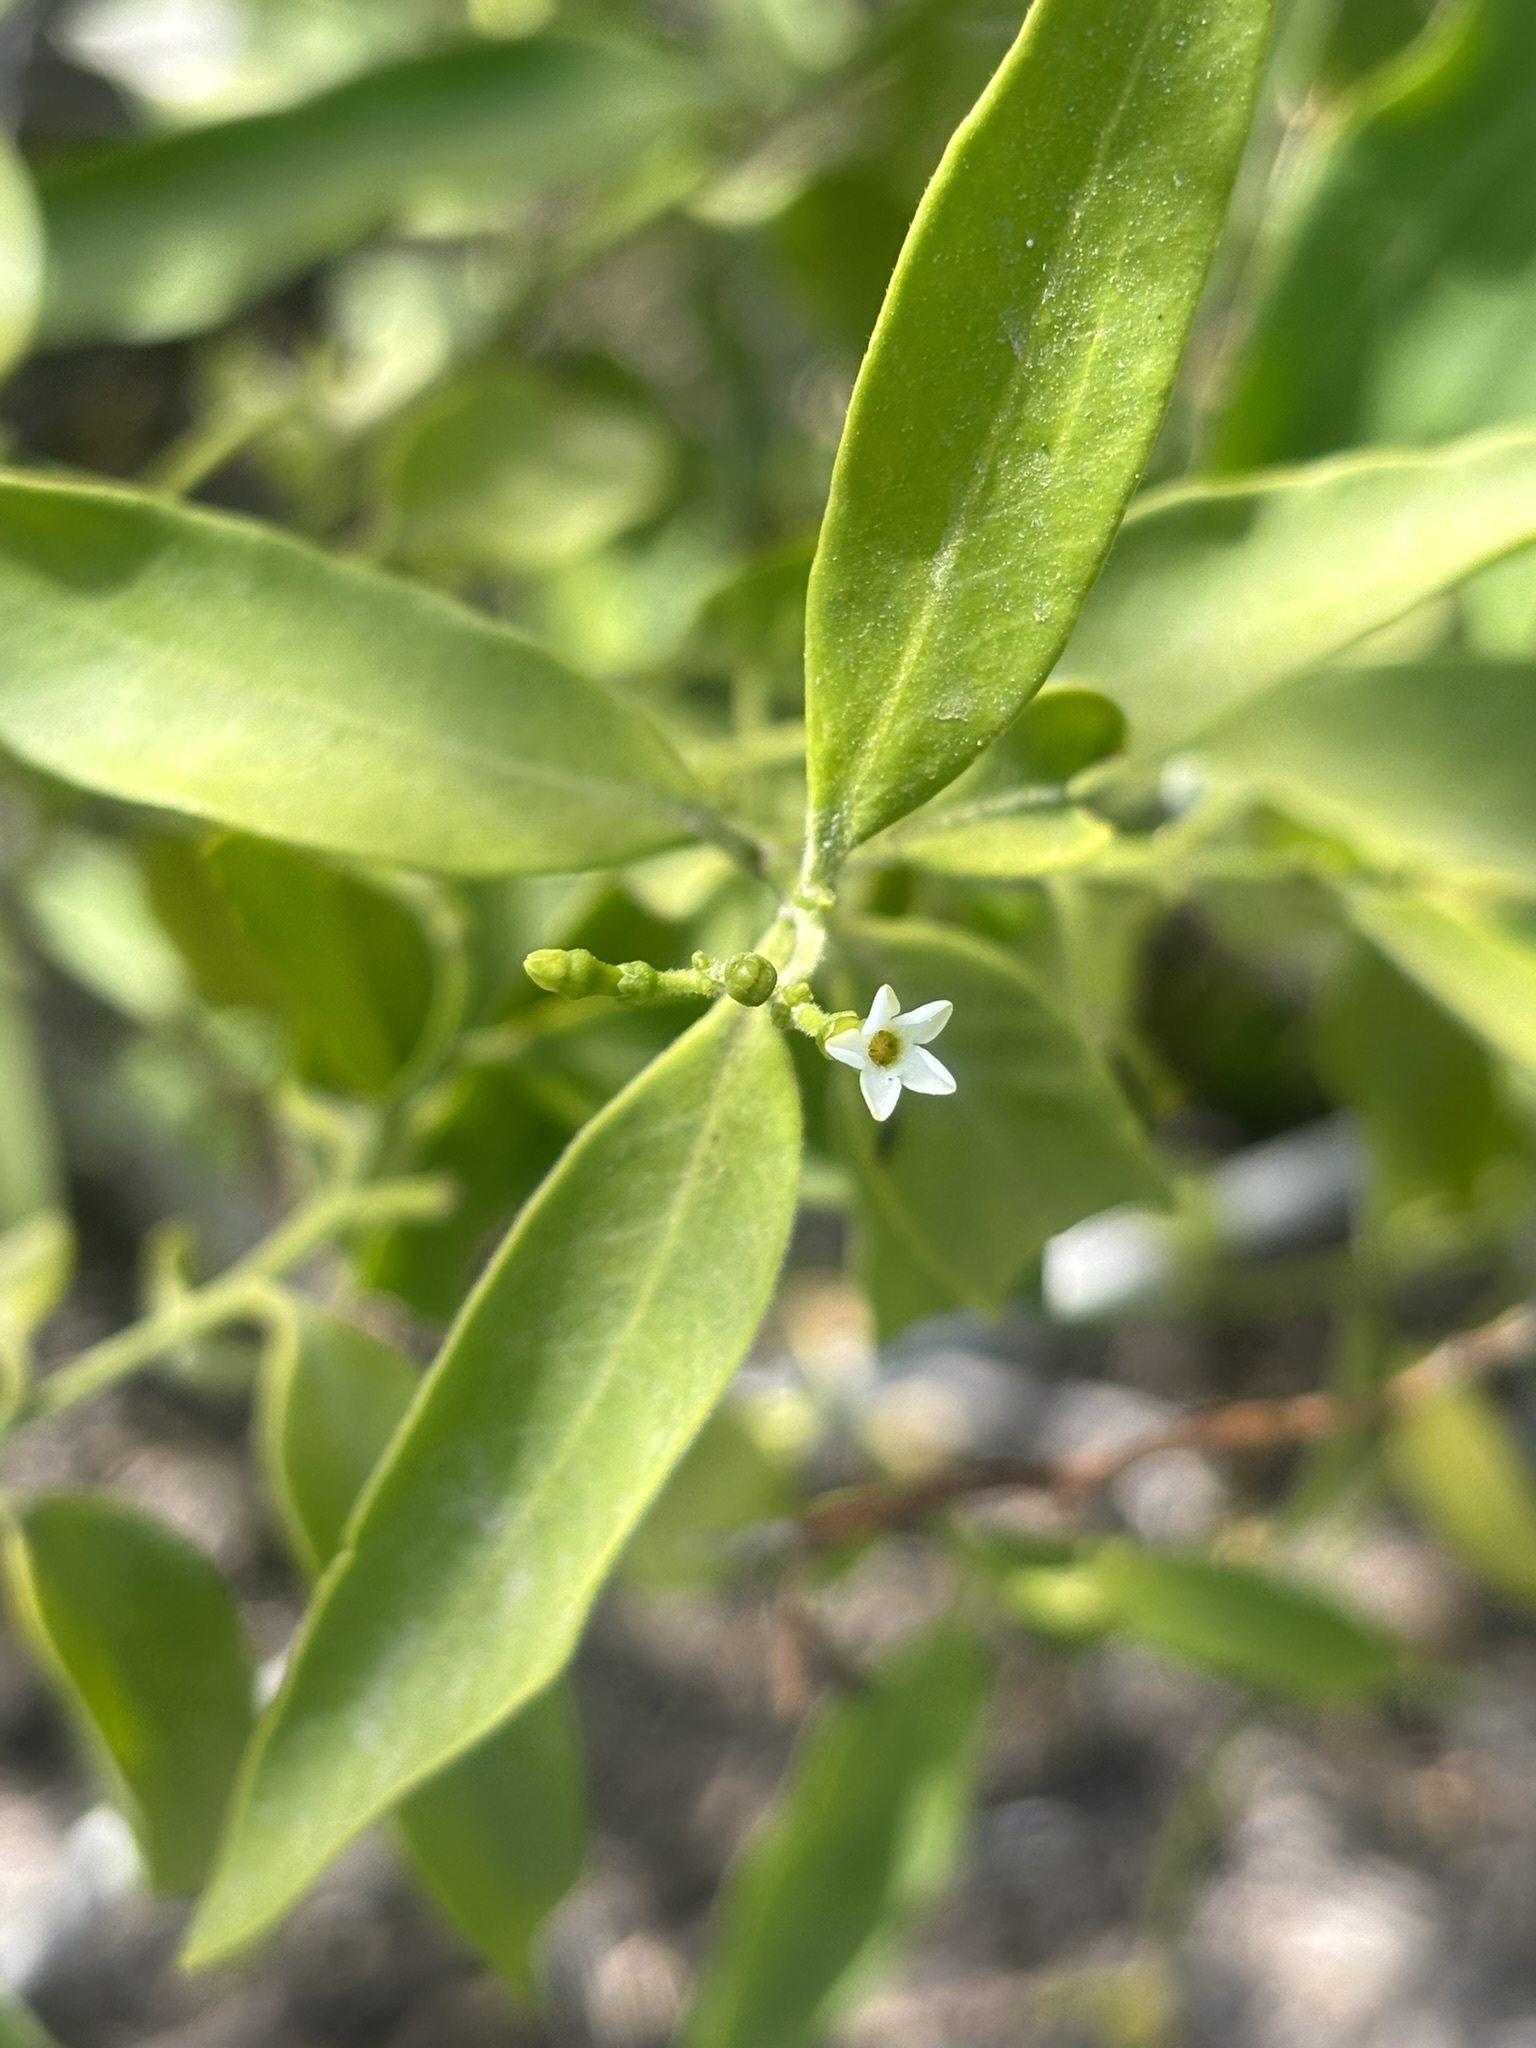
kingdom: Plantae
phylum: Tracheophyta
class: Magnoliopsida
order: Gentianales
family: Apocynaceae
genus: Vallesia
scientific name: Vallesia glabra
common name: Pearlberry
